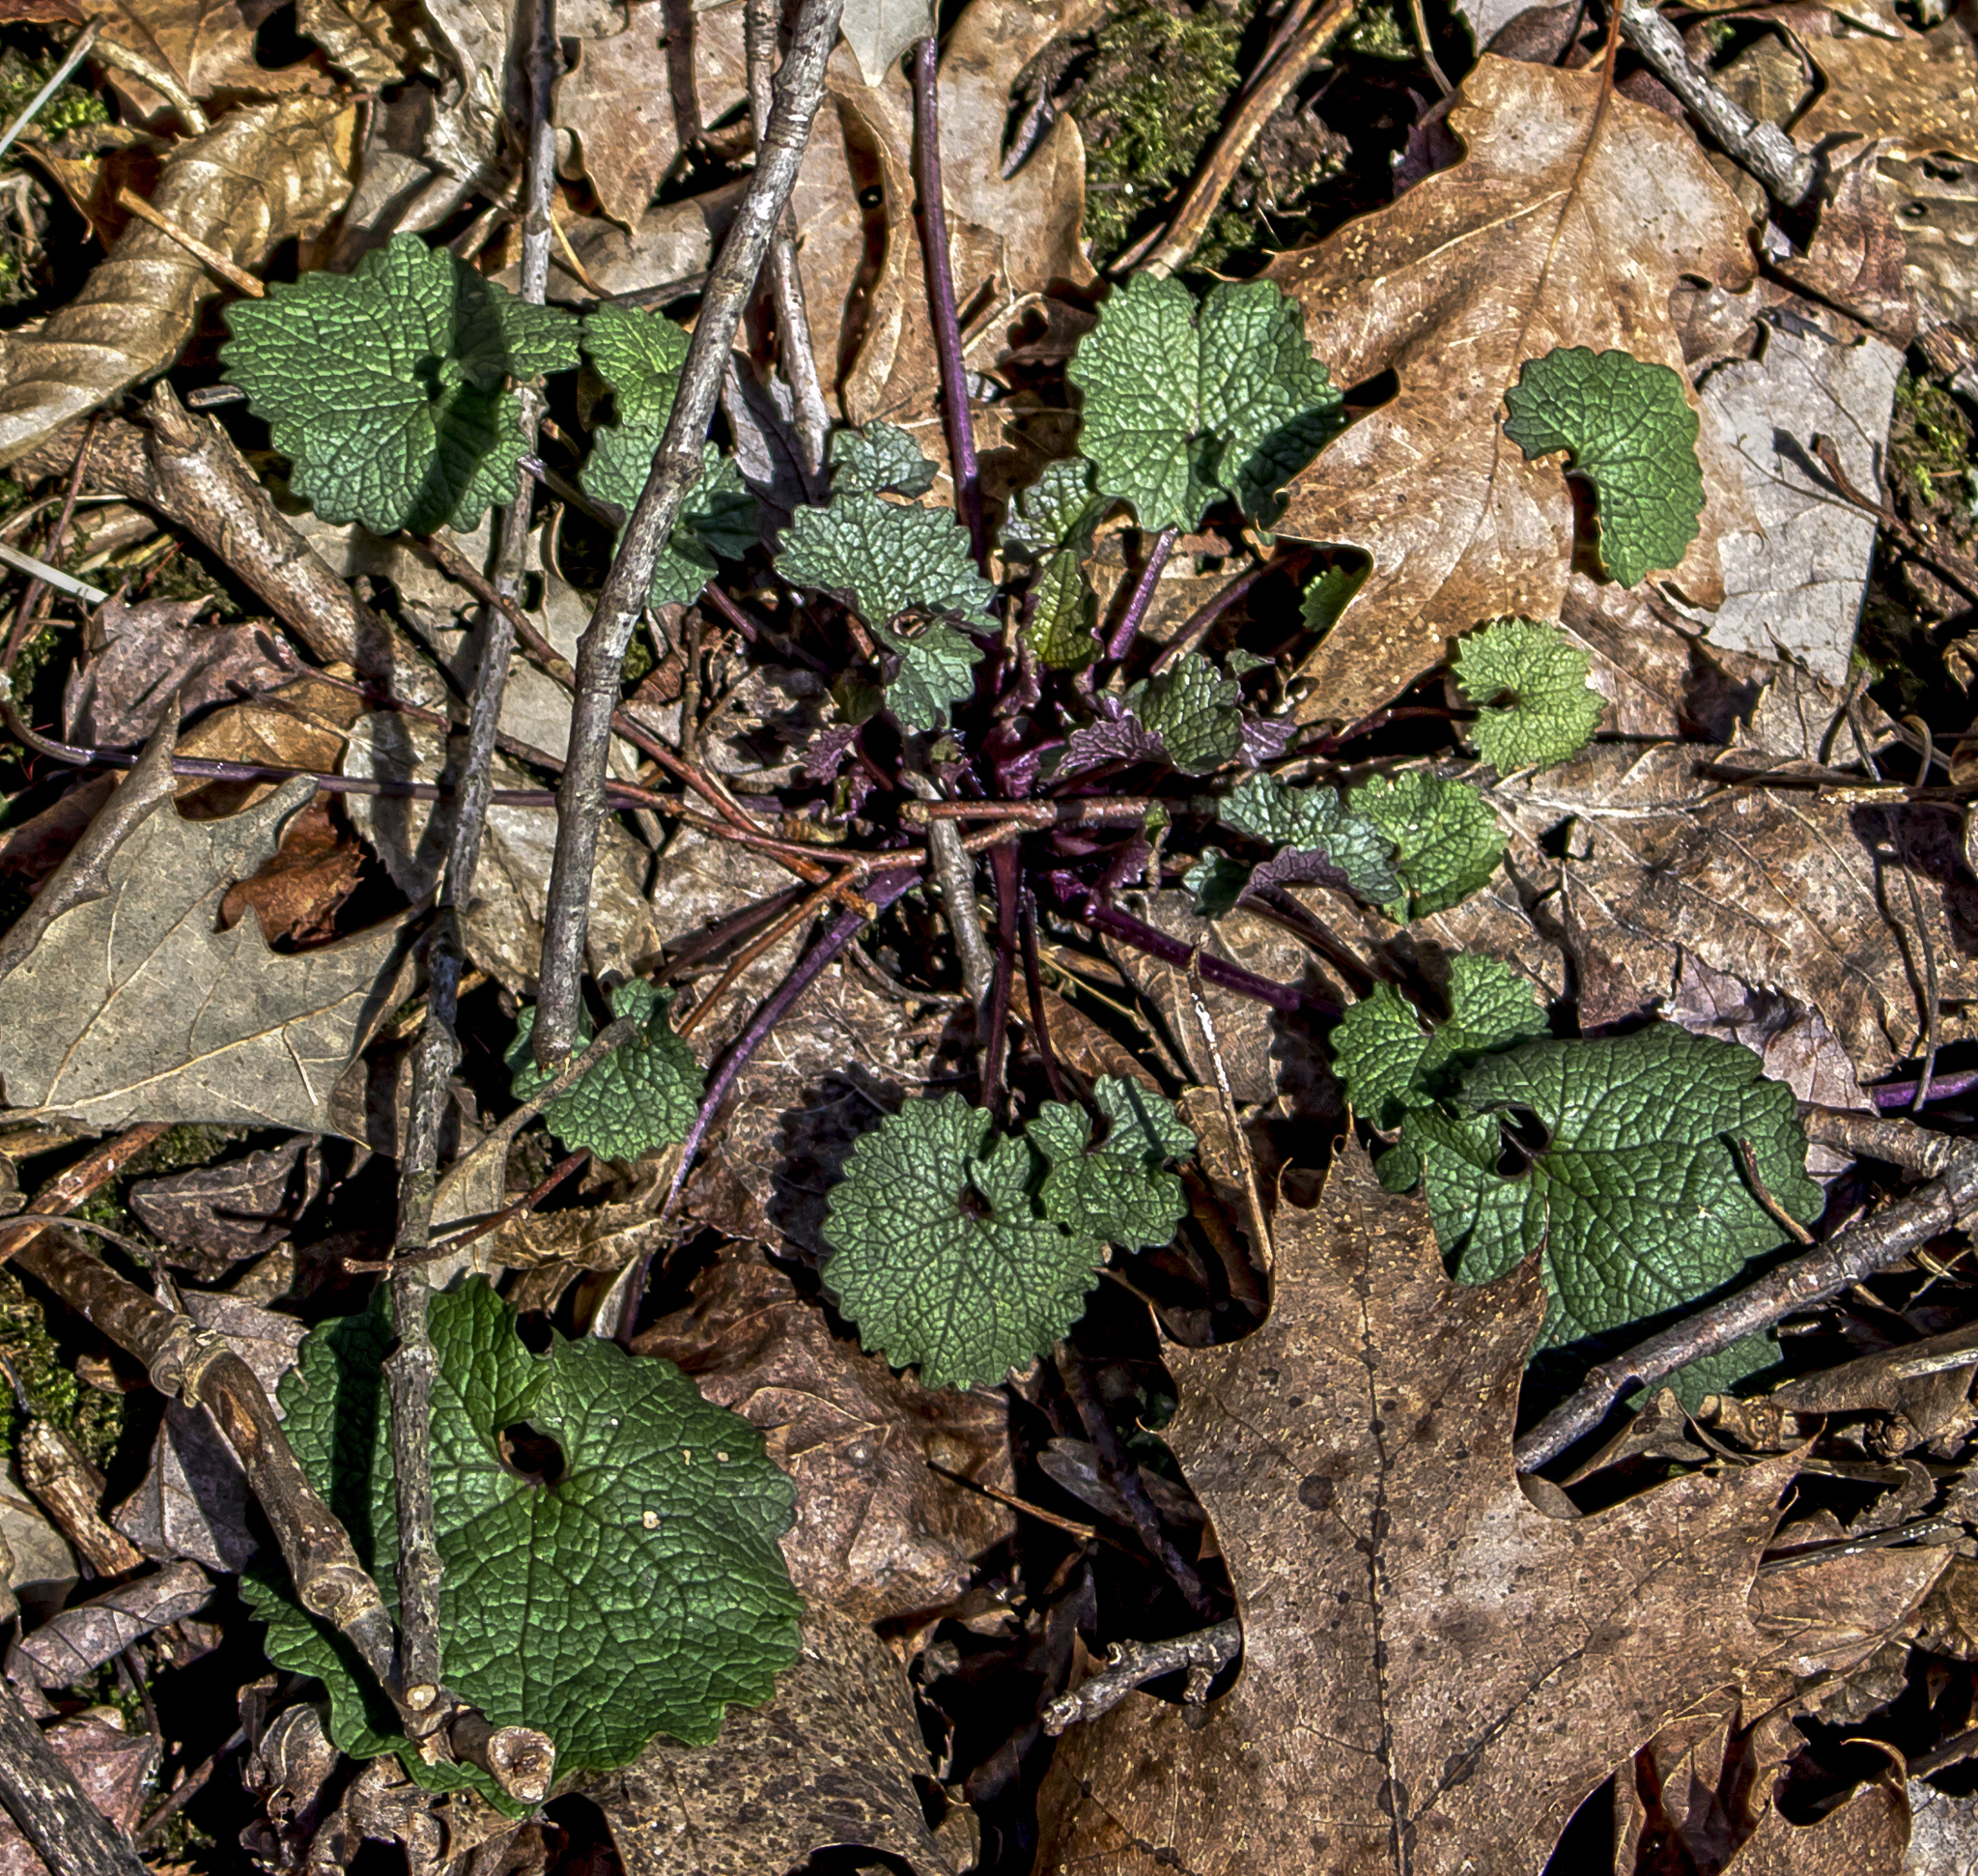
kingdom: Plantae
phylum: Tracheophyta
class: Magnoliopsida
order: Brassicales
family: Brassicaceae
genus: Alliaria
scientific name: Alliaria petiolata
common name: Garlic mustard
